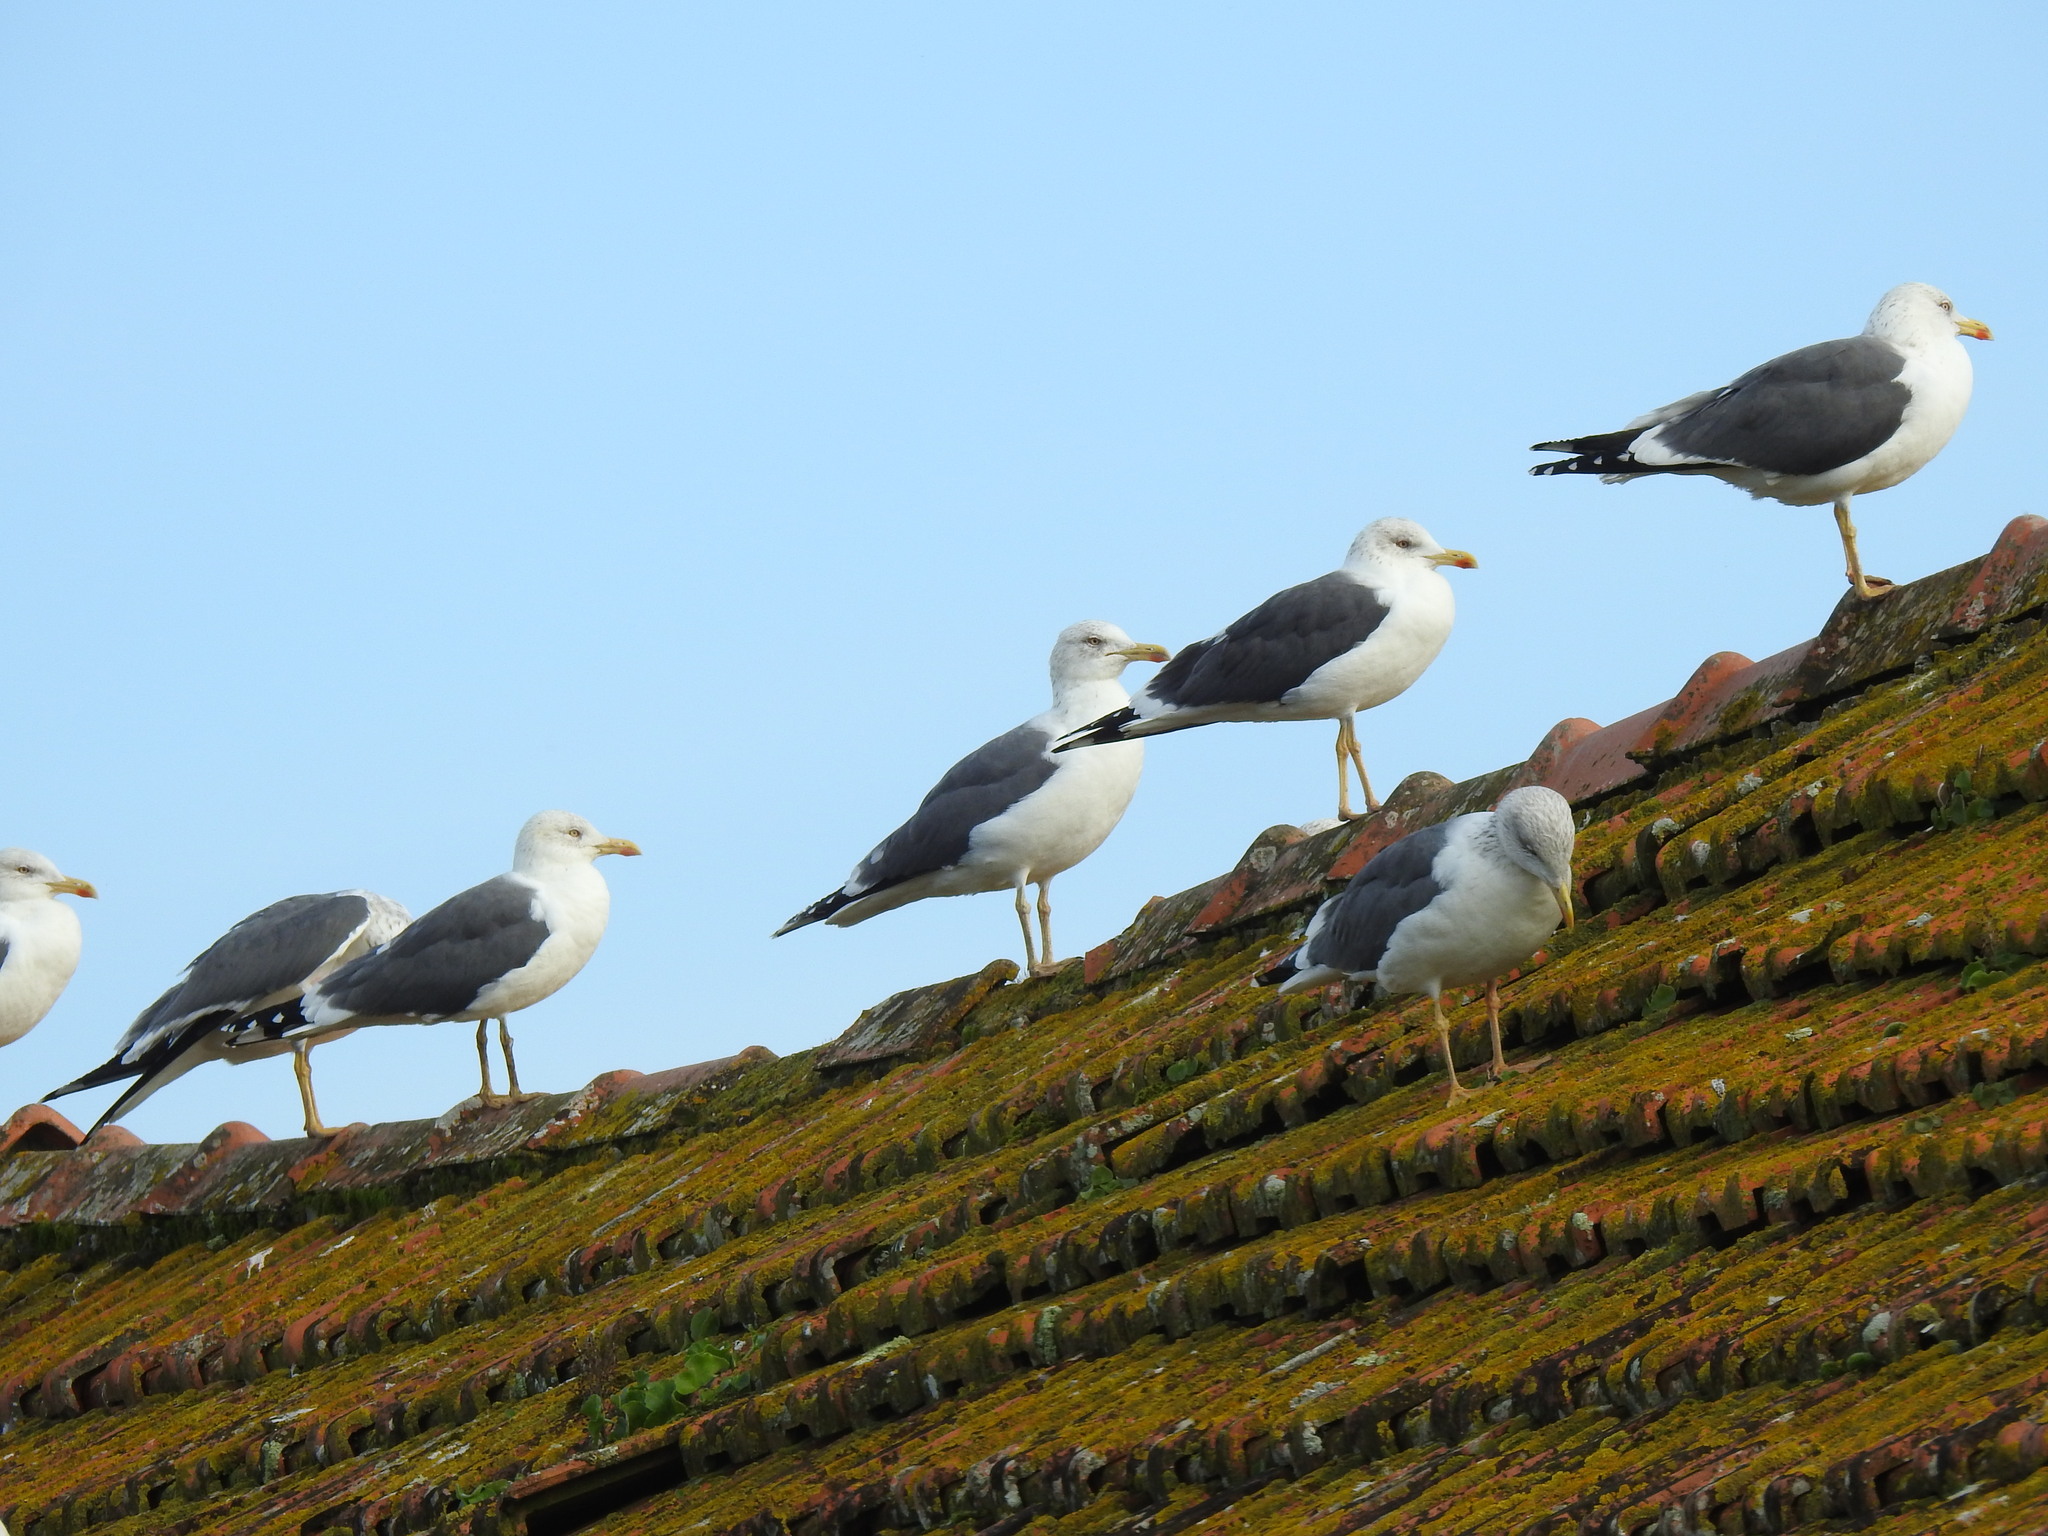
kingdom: Animalia
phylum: Chordata
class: Aves
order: Charadriiformes
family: Laridae
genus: Larus
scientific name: Larus fuscus
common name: Lesser black-backed gull
